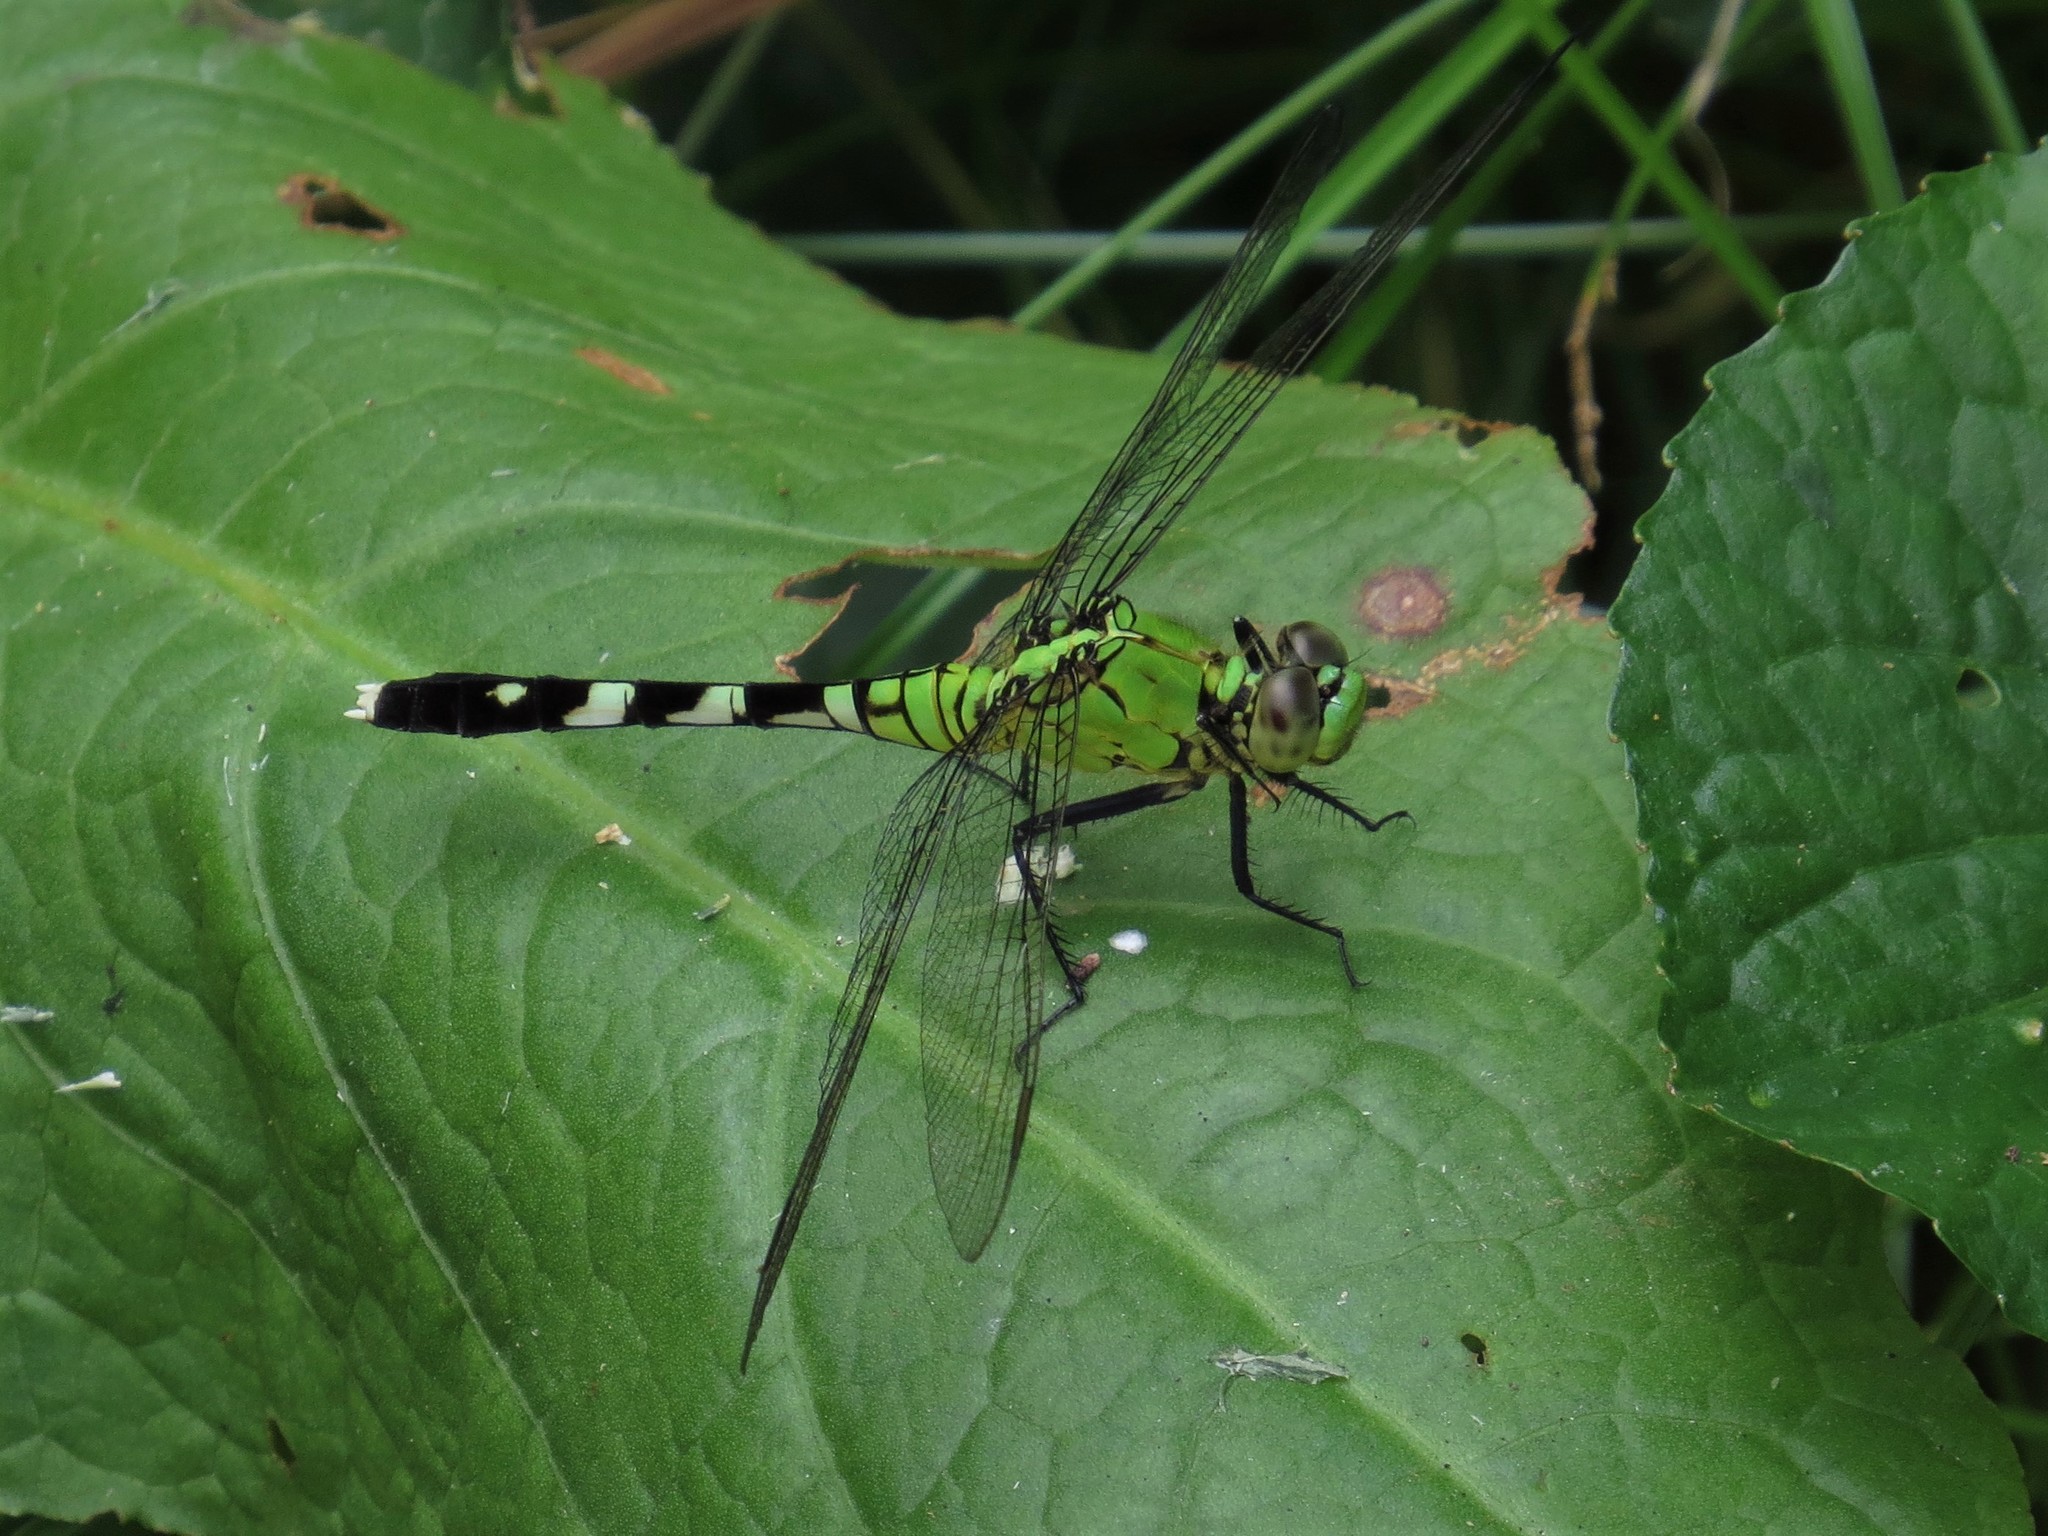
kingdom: Animalia
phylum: Arthropoda
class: Insecta
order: Odonata
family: Libellulidae
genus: Erythemis
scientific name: Erythemis simplicicollis
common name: Eastern pondhawk
